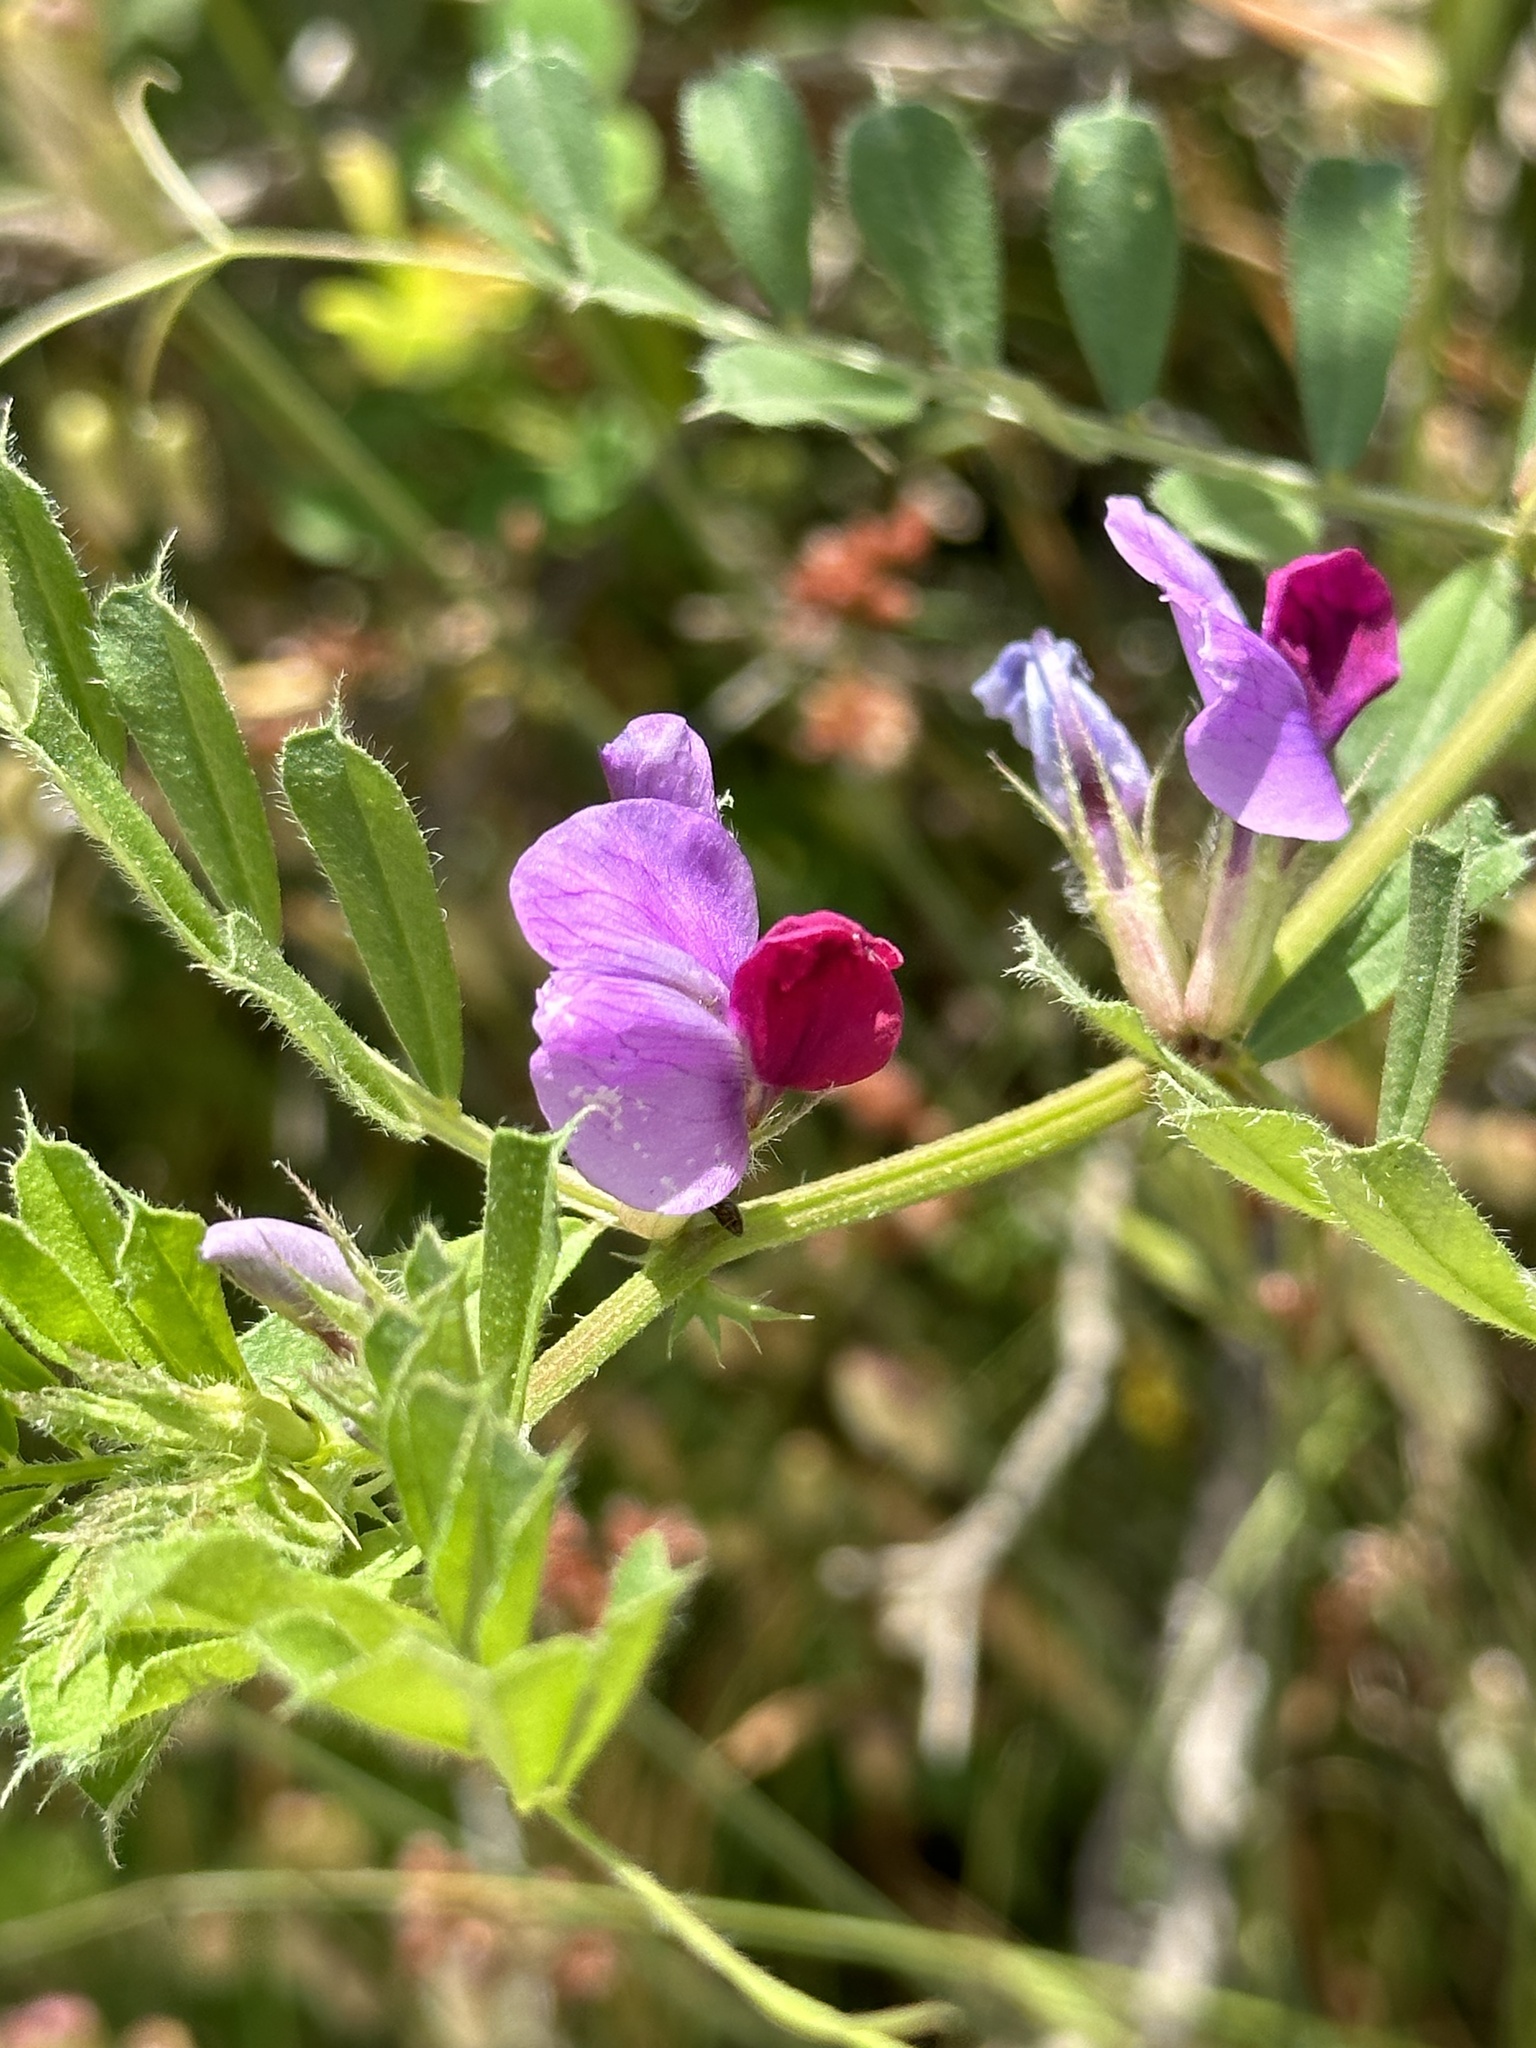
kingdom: Plantae
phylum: Tracheophyta
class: Magnoliopsida
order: Fabales
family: Fabaceae
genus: Vicia
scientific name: Vicia sativa
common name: Garden vetch
